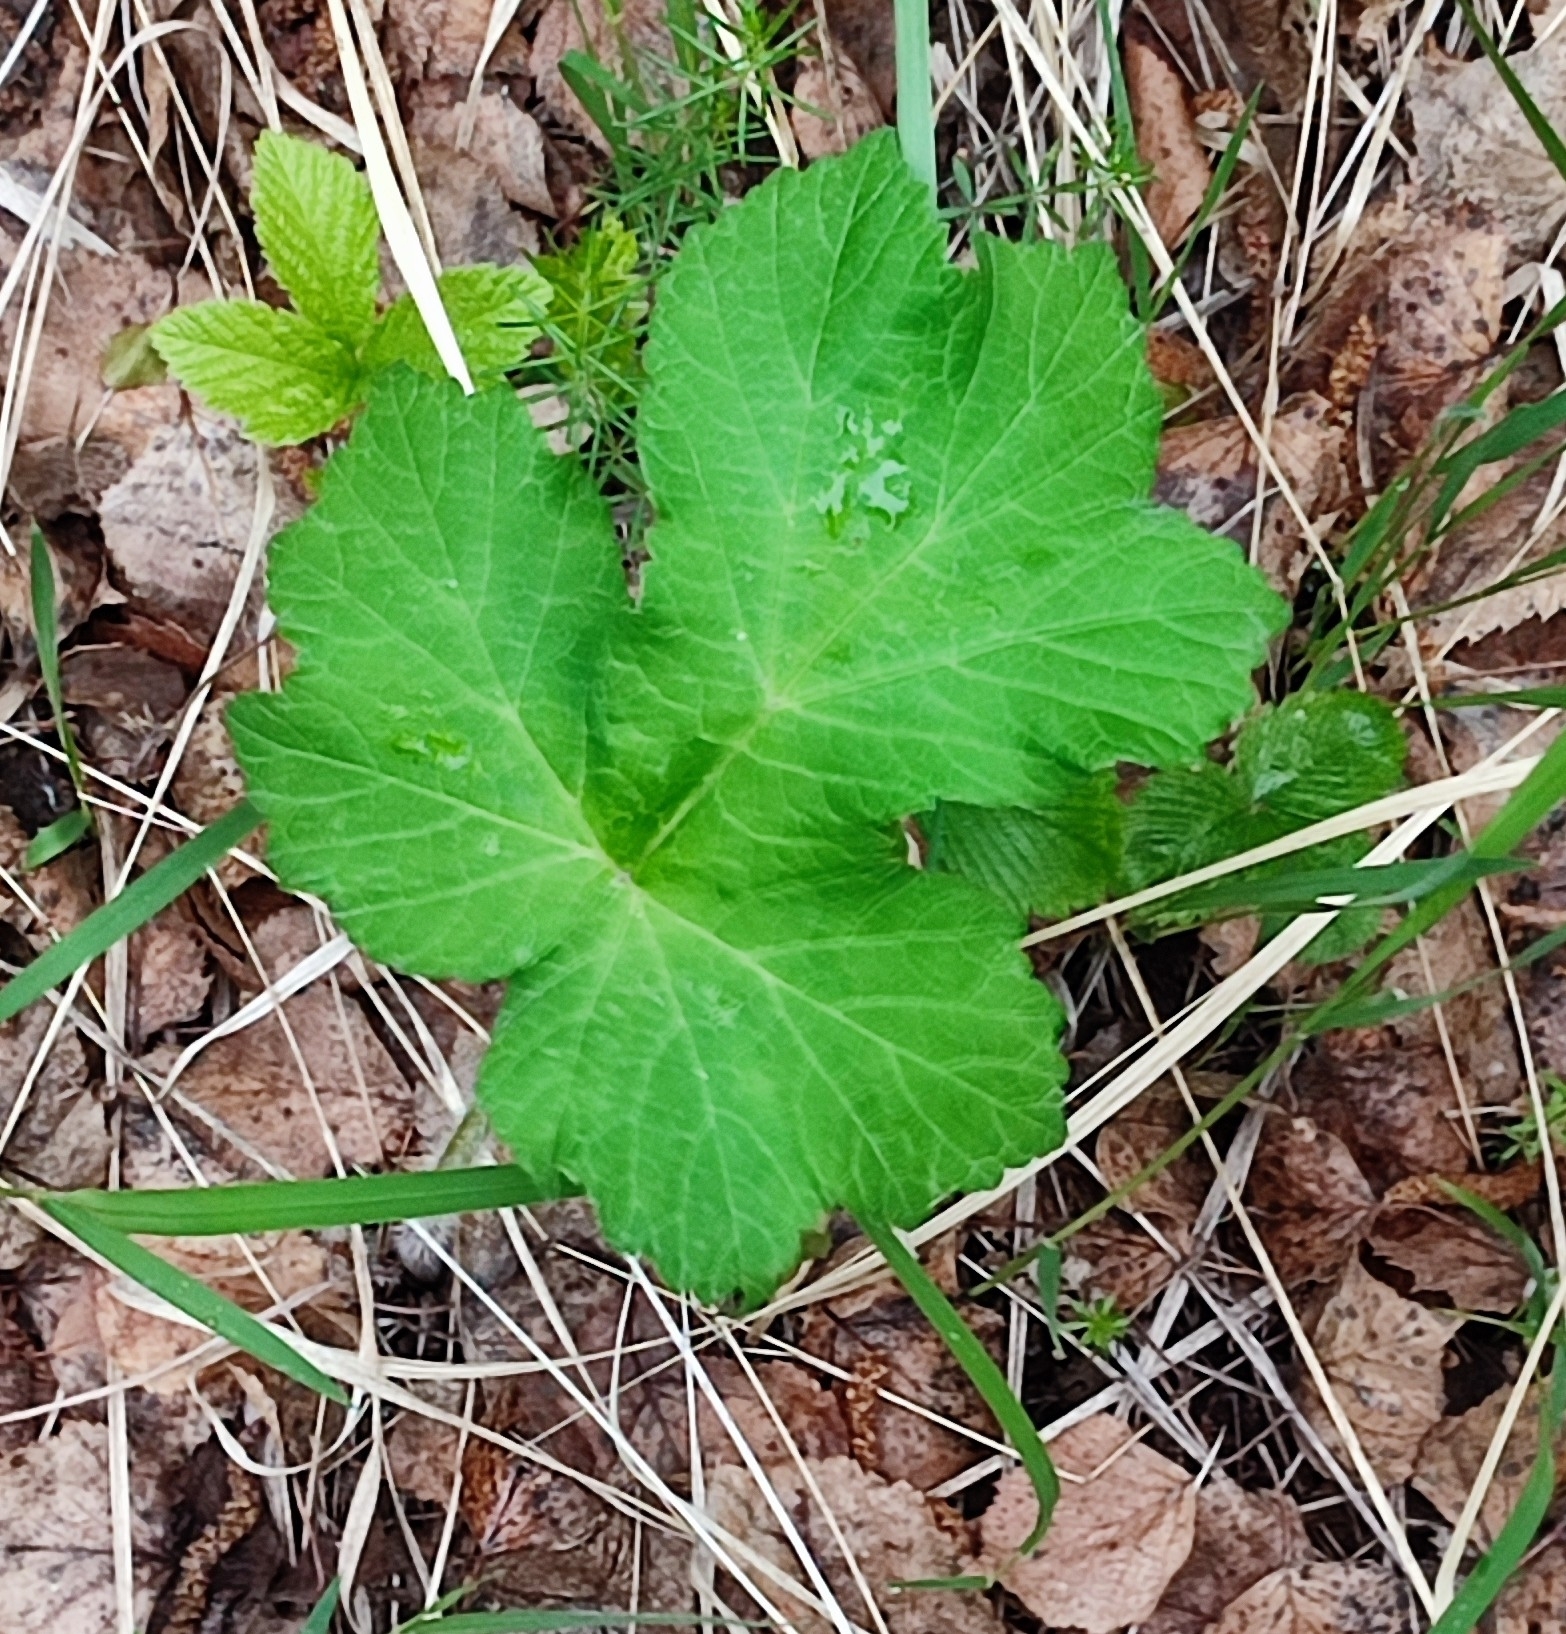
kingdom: Plantae
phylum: Tracheophyta
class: Magnoliopsida
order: Apiales
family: Apiaceae
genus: Heracleum
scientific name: Heracleum sphondylium
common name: Hogweed
